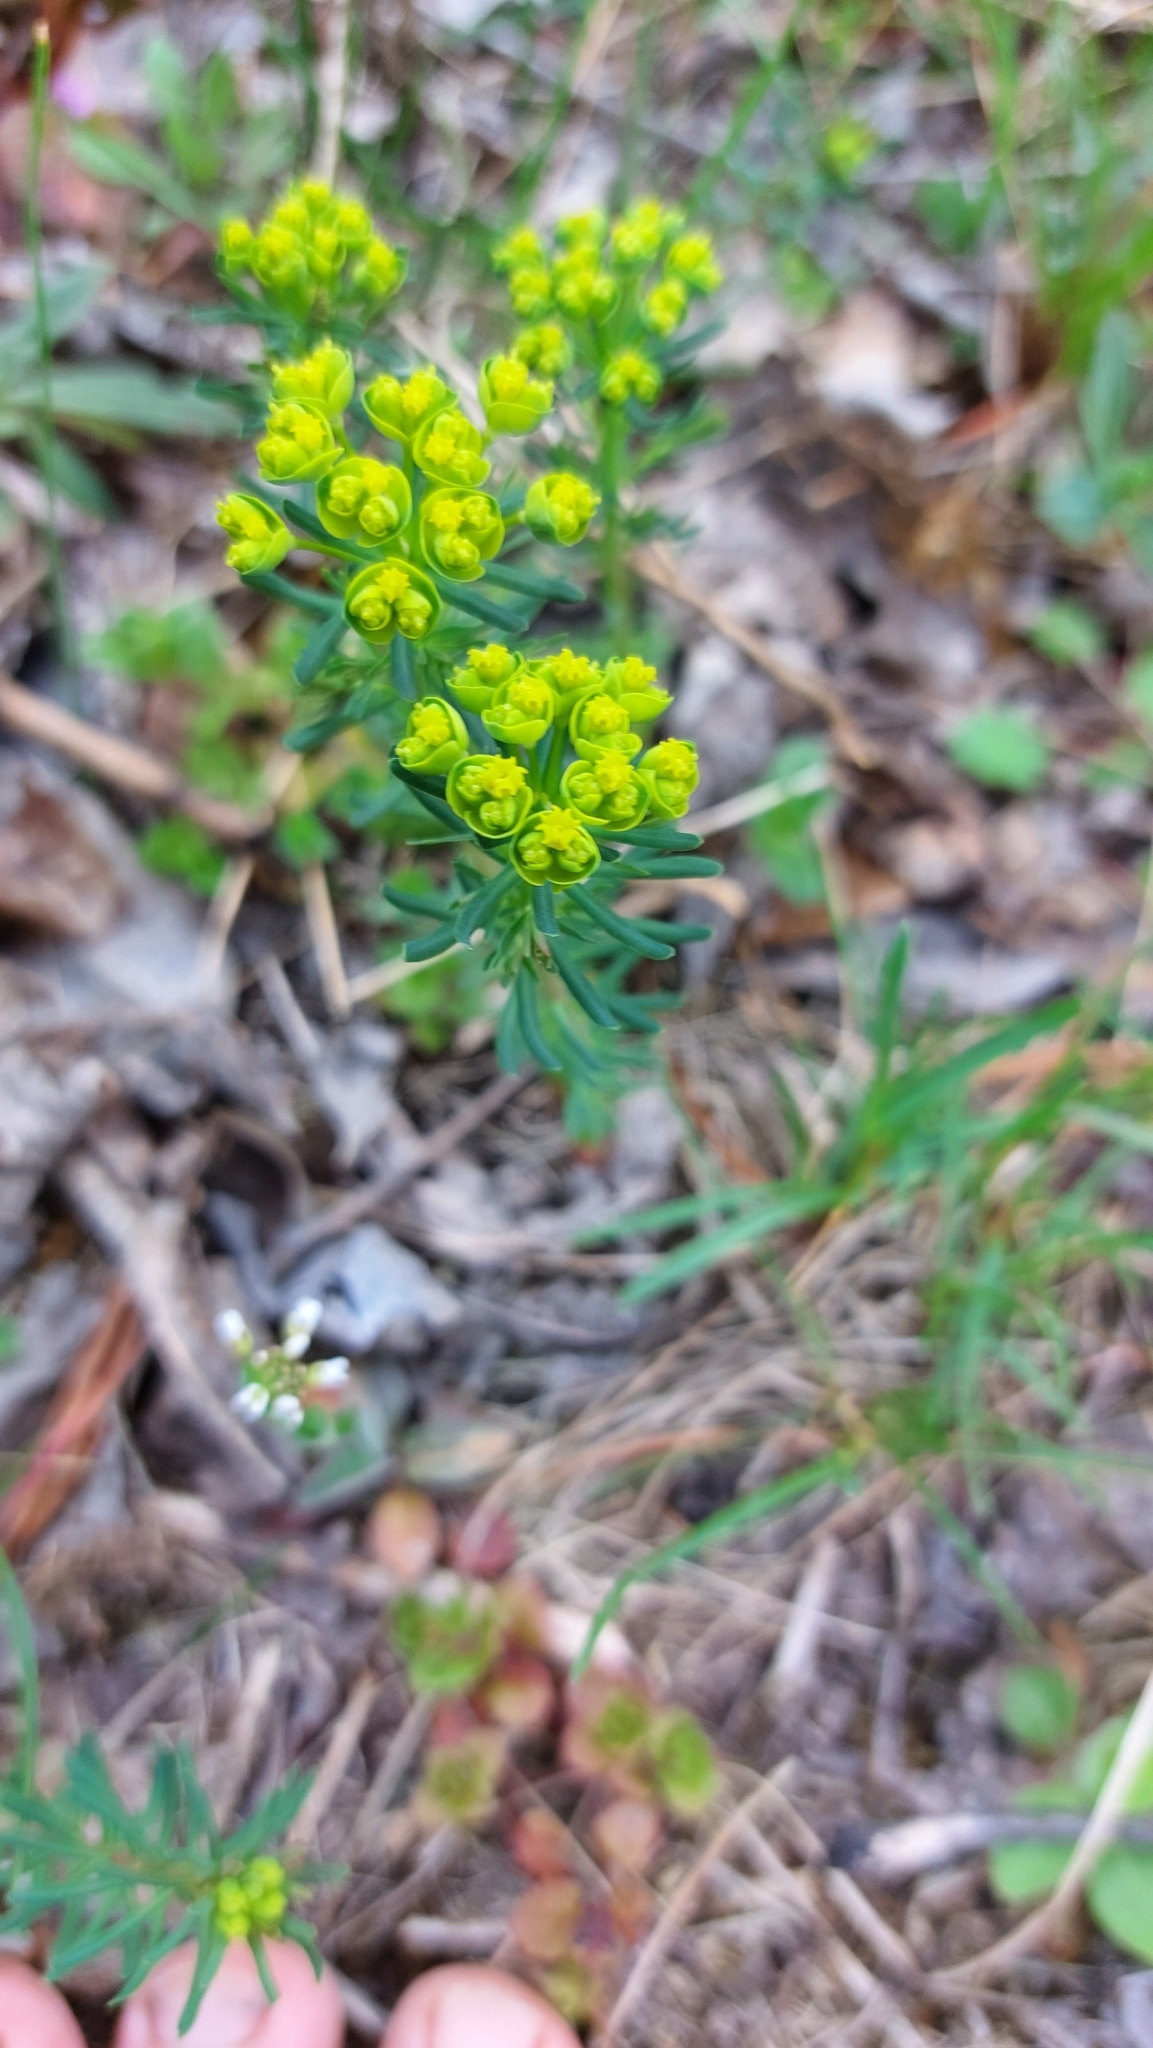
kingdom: Plantae
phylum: Tracheophyta
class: Magnoliopsida
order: Malpighiales
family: Euphorbiaceae
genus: Euphorbia
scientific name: Euphorbia cyparissias
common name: Cypress spurge
